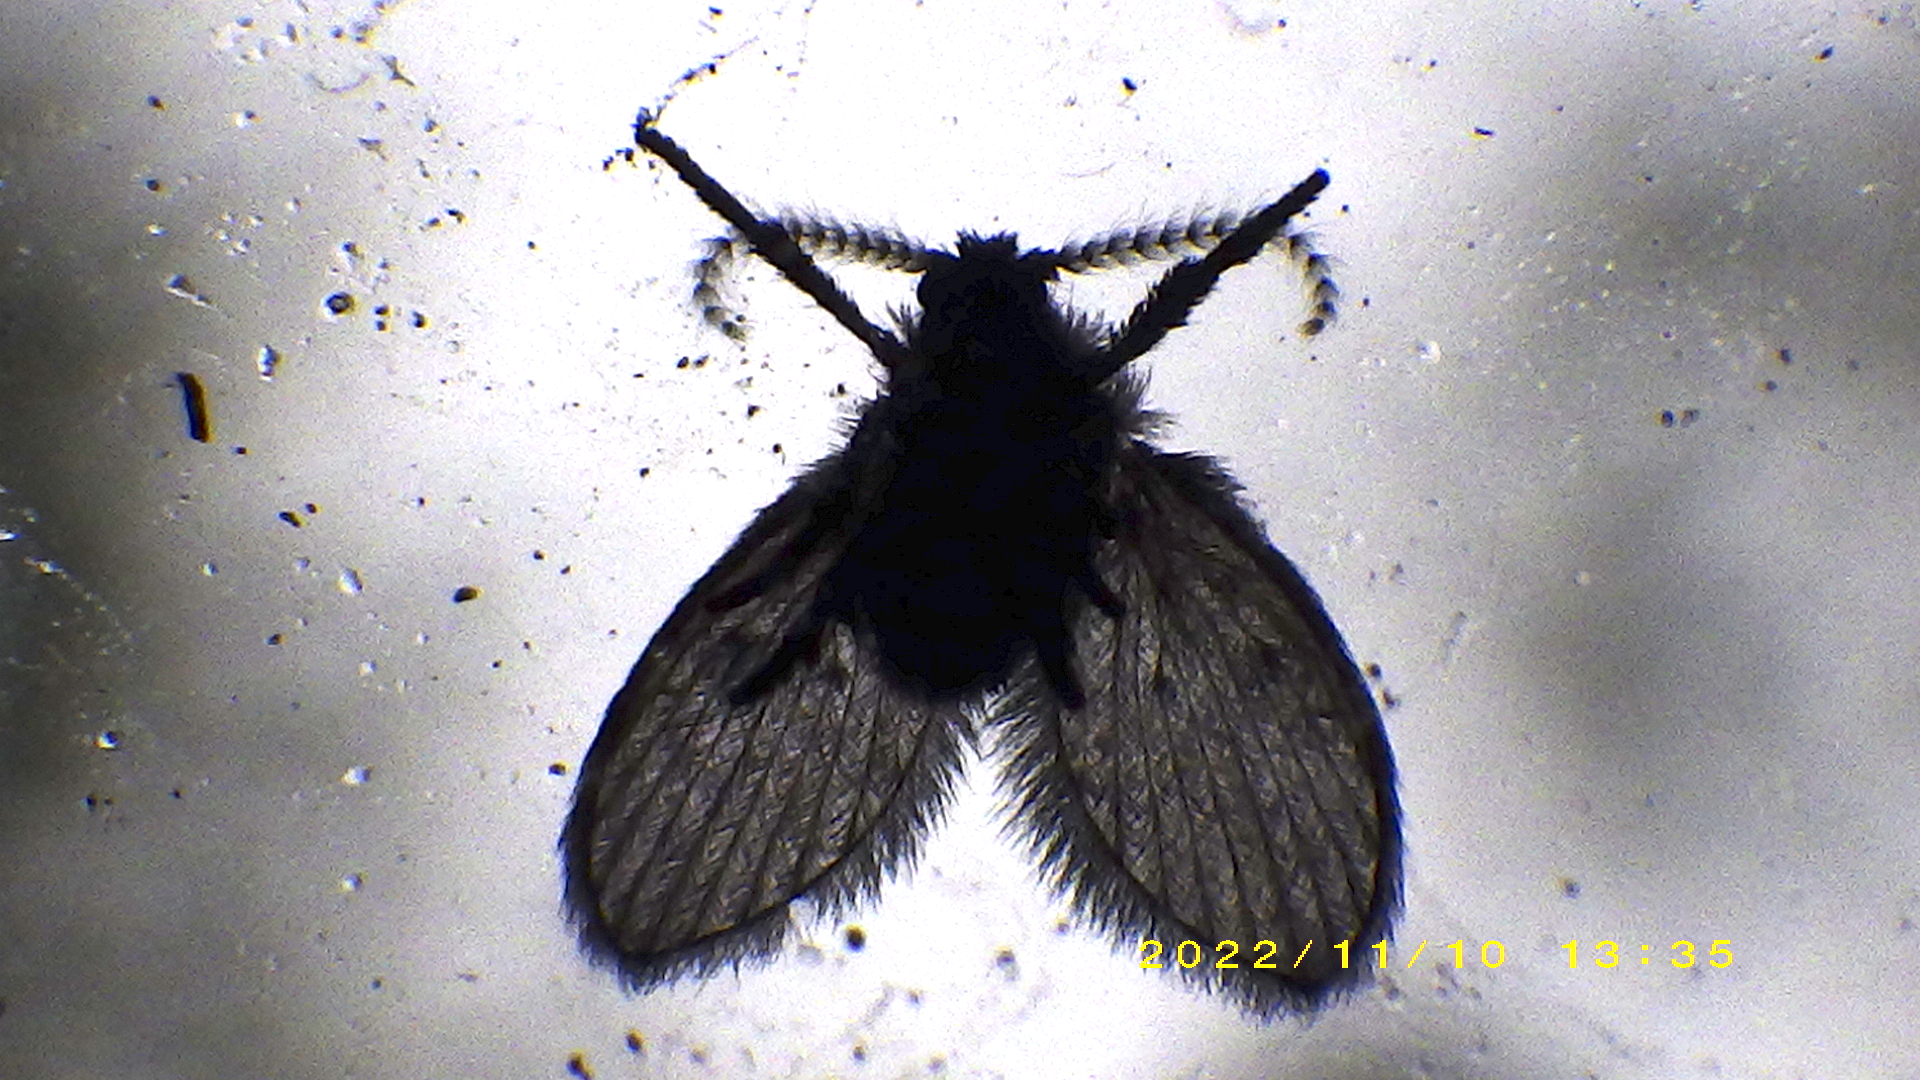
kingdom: Animalia
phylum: Arthropoda
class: Insecta
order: Diptera
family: Psychodidae
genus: Clogmia
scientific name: Clogmia albipunctatus
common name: White-spotted moth fly
